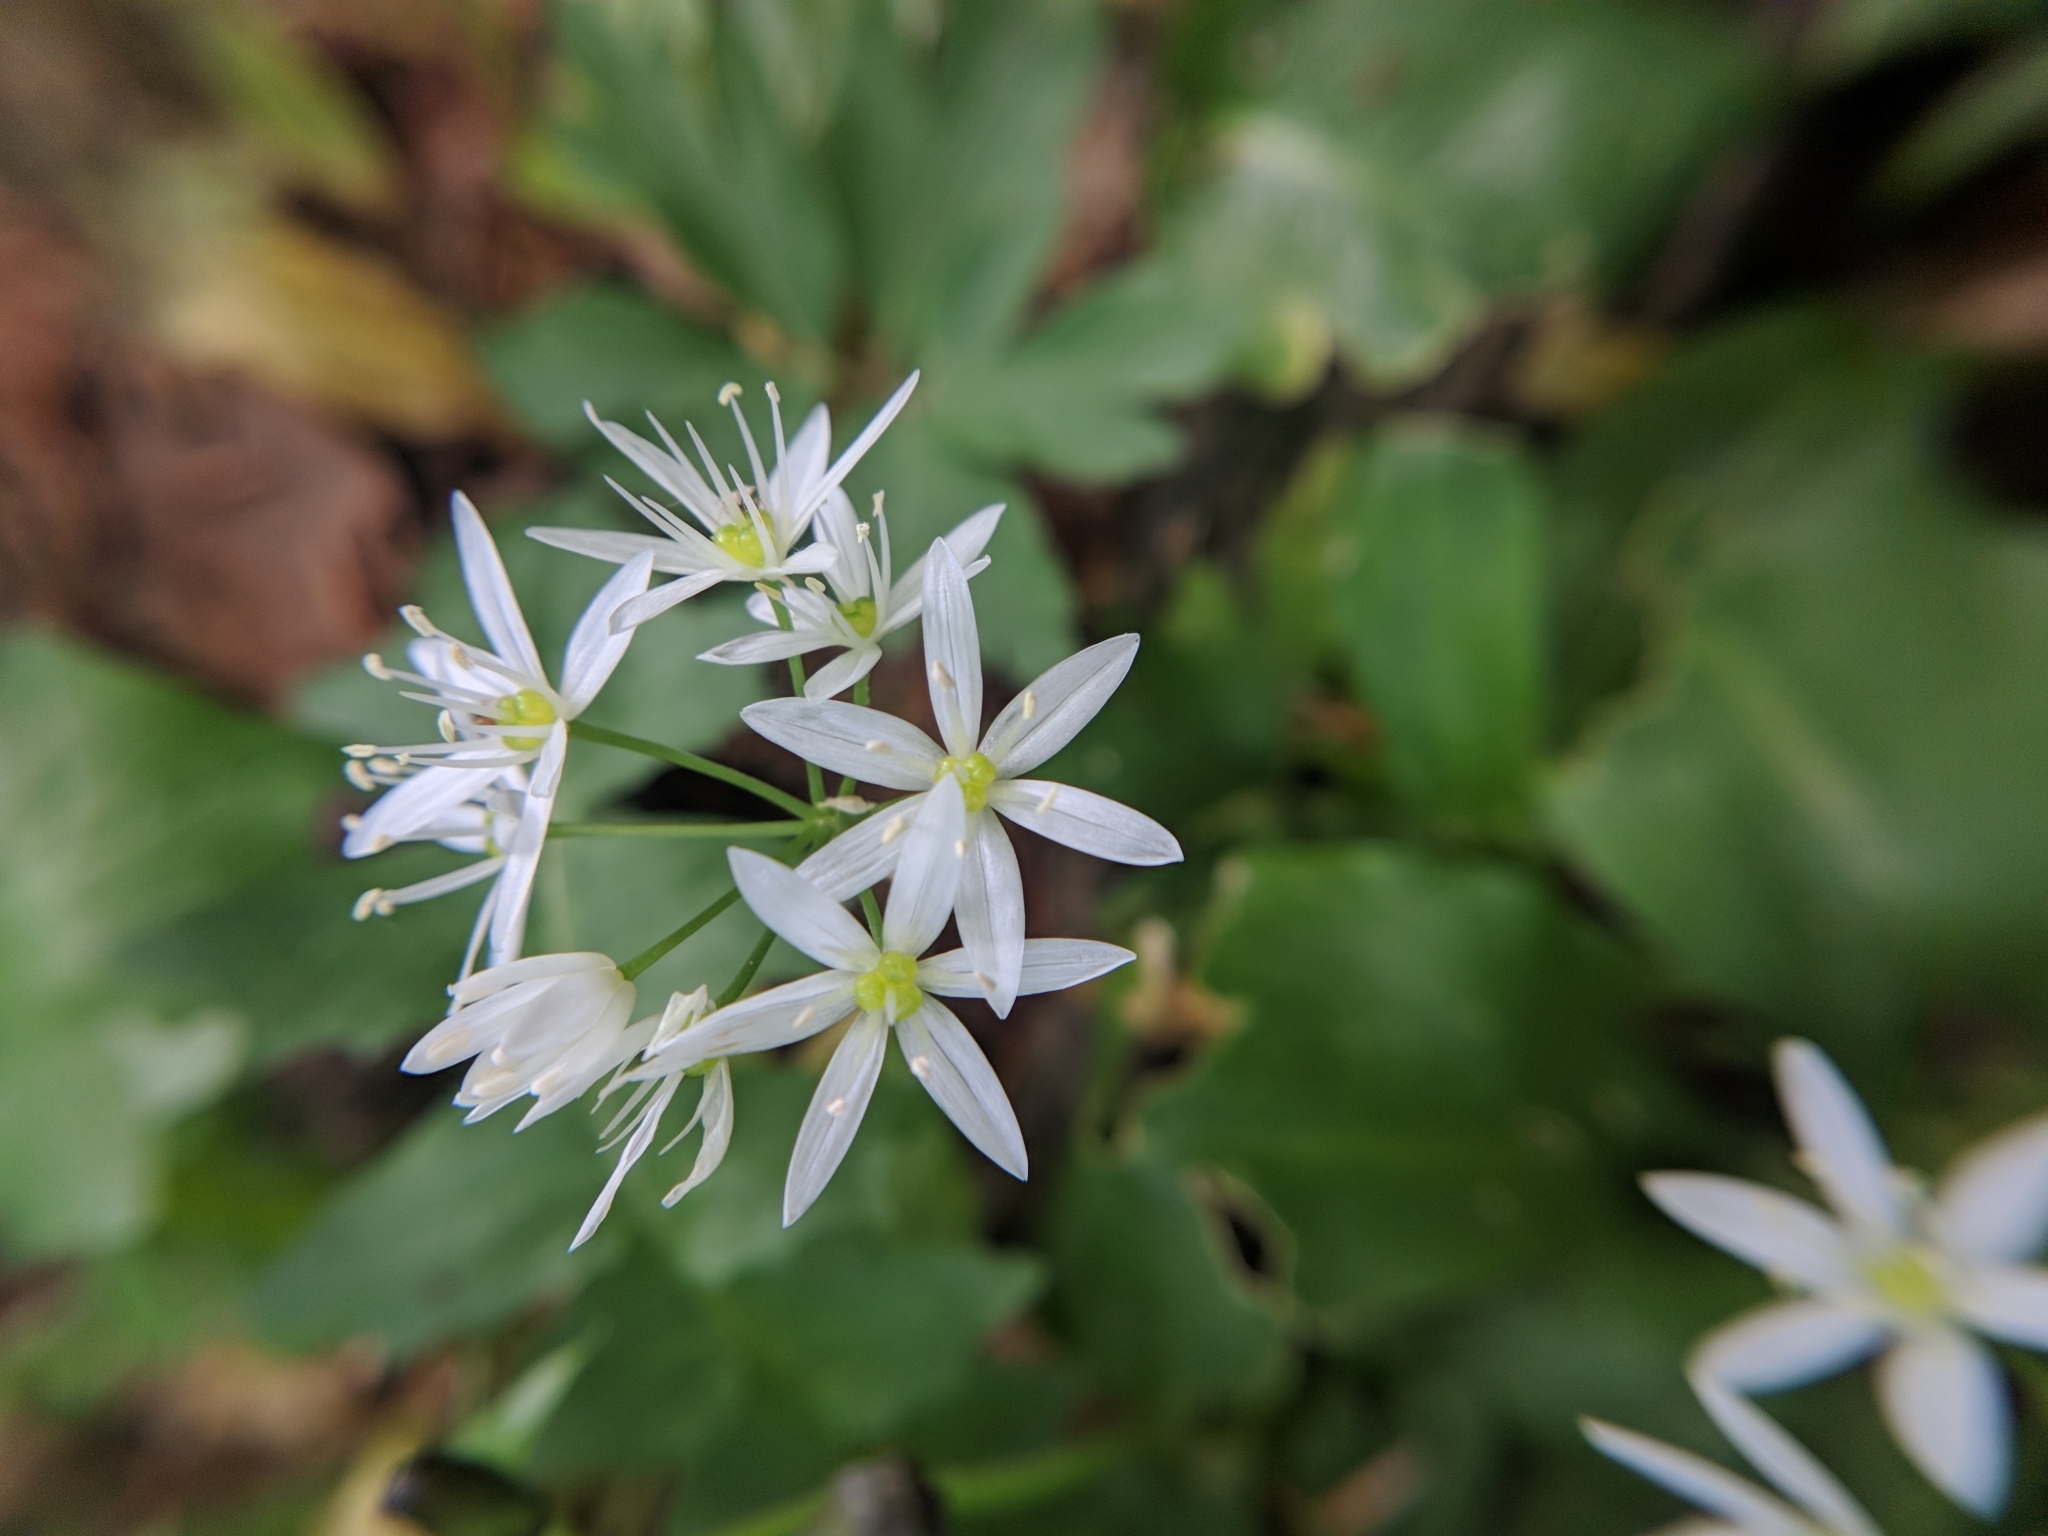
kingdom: Plantae
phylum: Tracheophyta
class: Liliopsida
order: Asparagales
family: Amaryllidaceae
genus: Allium
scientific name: Allium ursinum
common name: Ramsons
